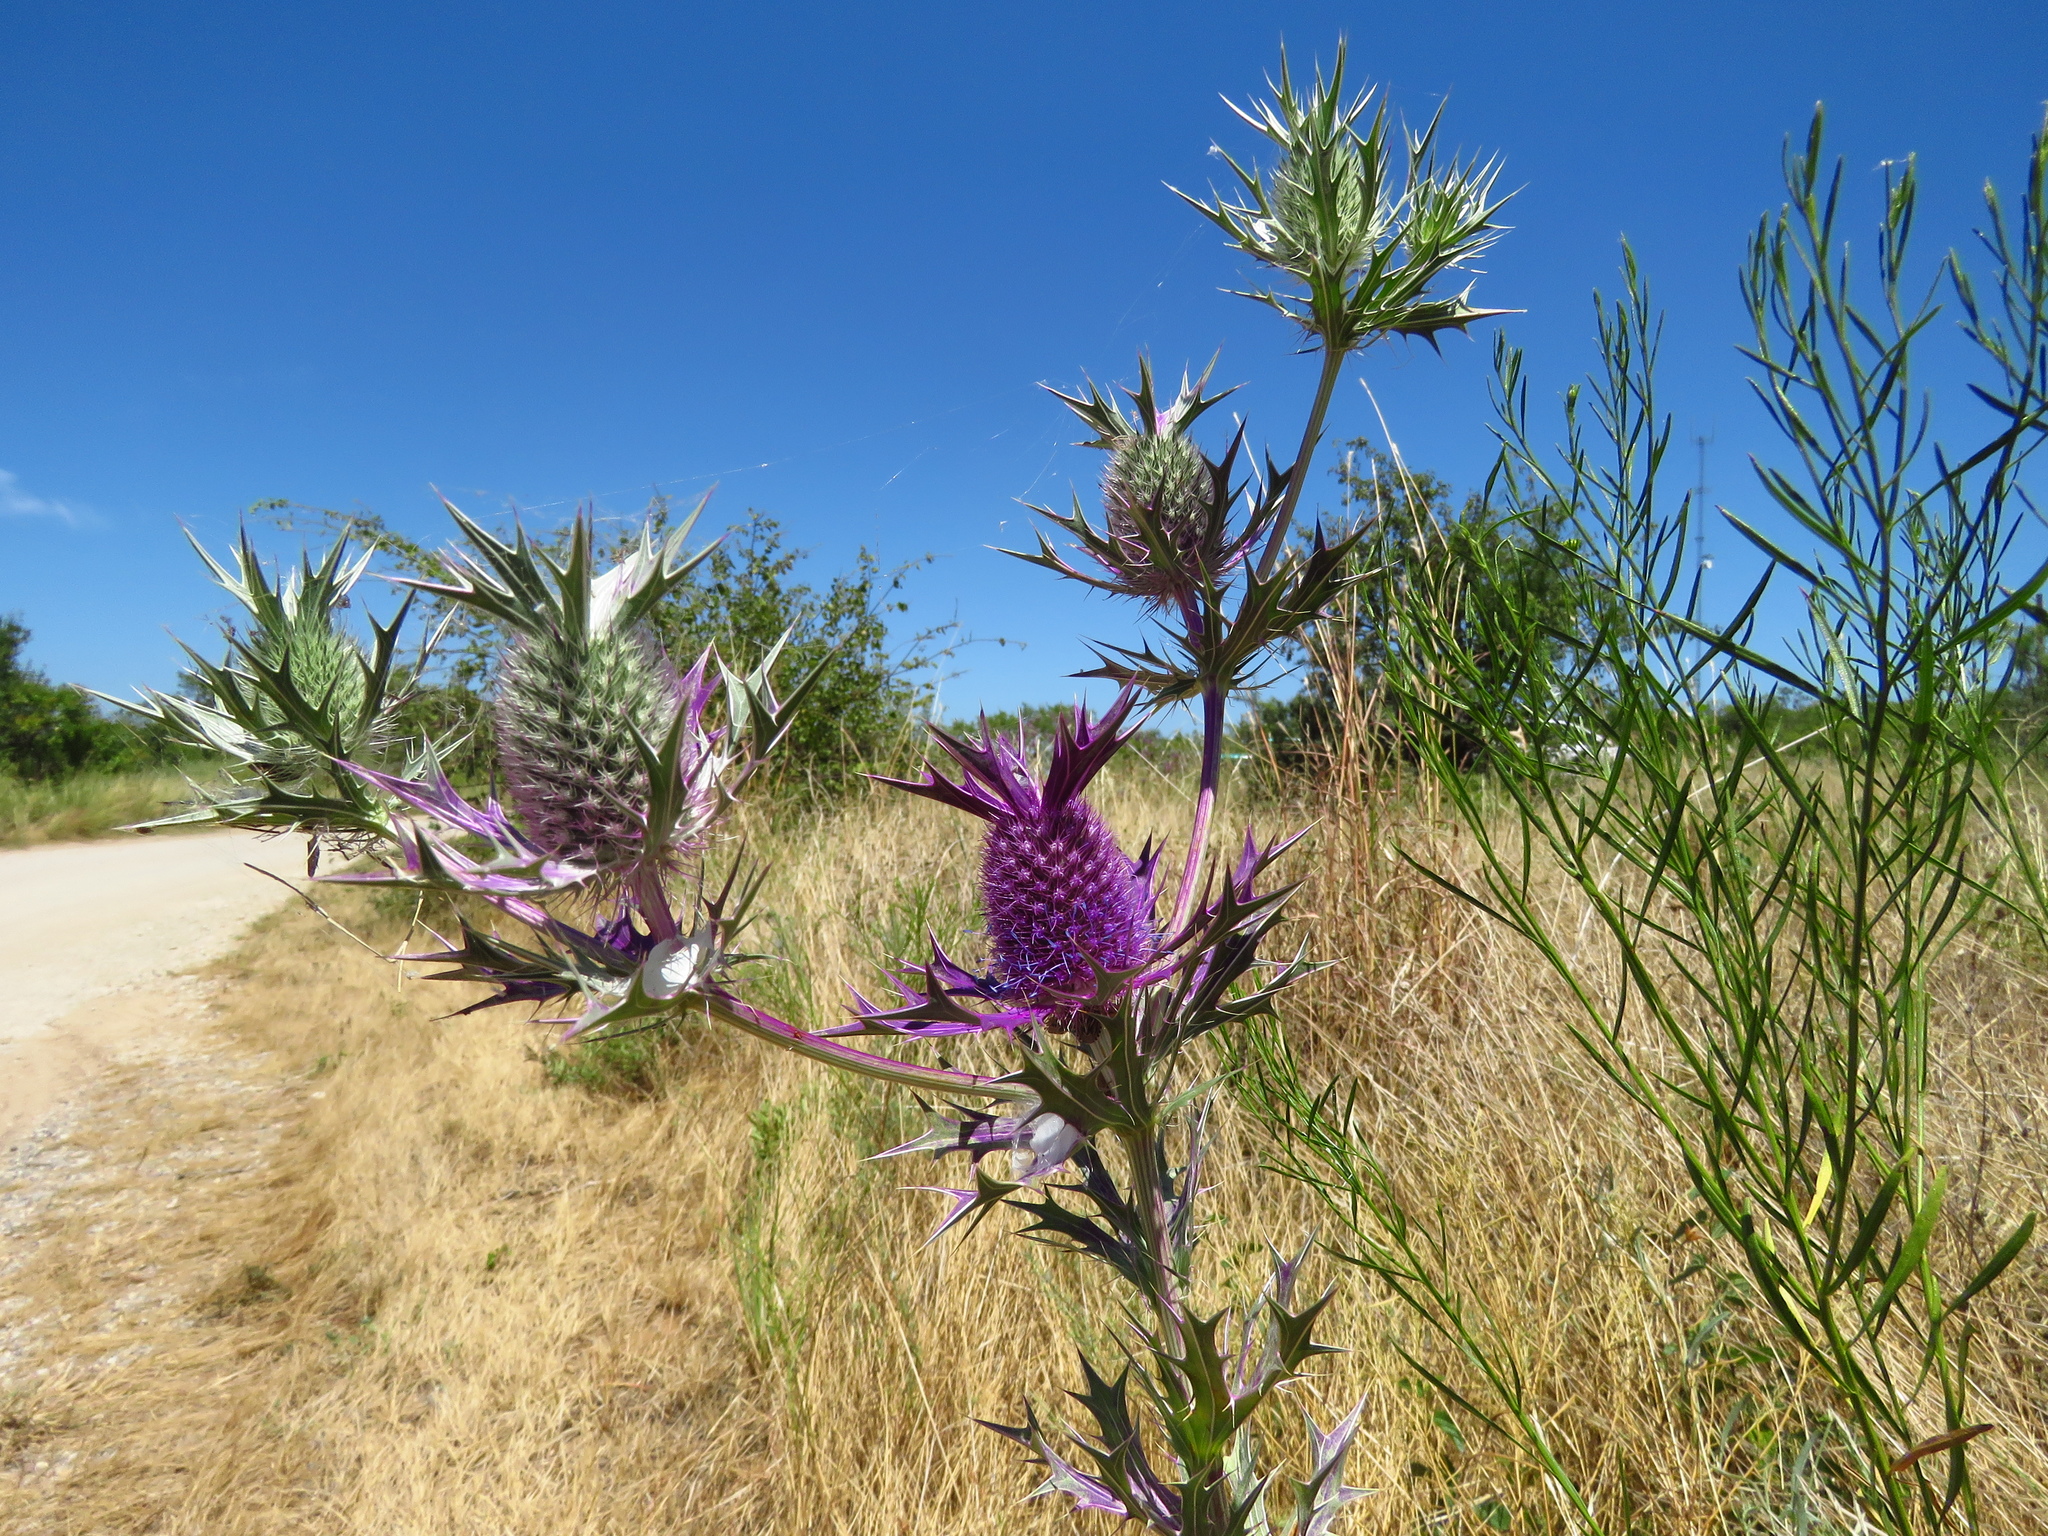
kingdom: Plantae
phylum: Tracheophyta
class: Magnoliopsida
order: Apiales
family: Apiaceae
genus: Eryngium
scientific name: Eryngium leavenworthii
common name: Leavenworth's eryngo
